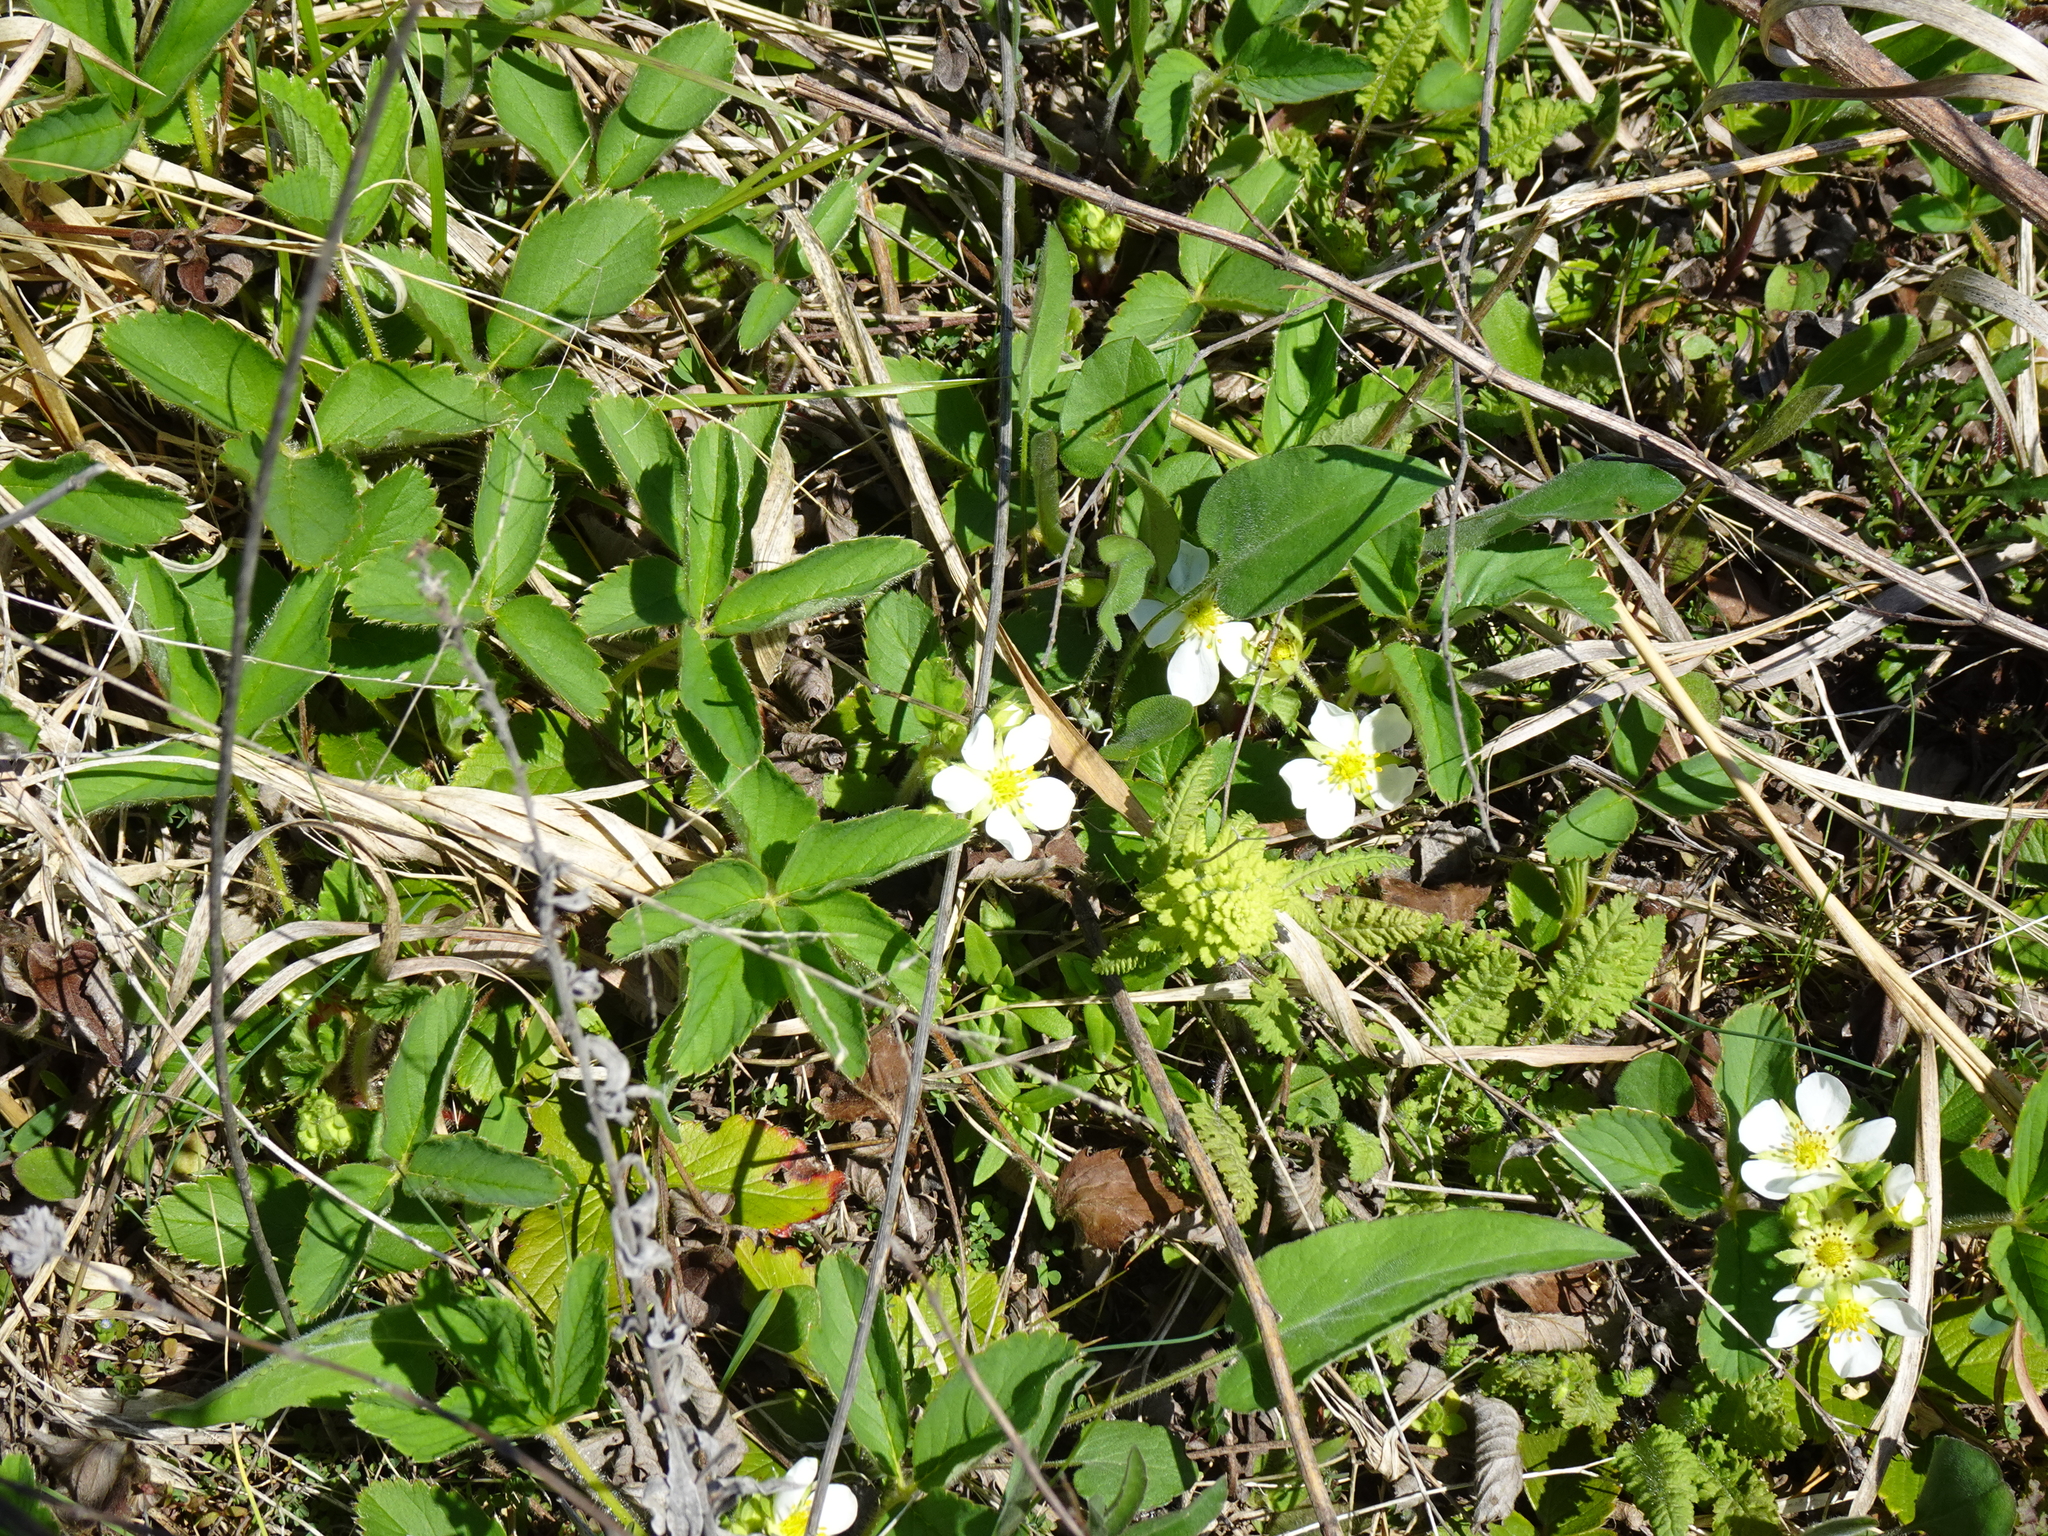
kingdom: Plantae
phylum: Tracheophyta
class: Magnoliopsida
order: Rosales
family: Rosaceae
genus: Fragaria
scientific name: Fragaria virginiana
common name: Thickleaved wild strawberry
